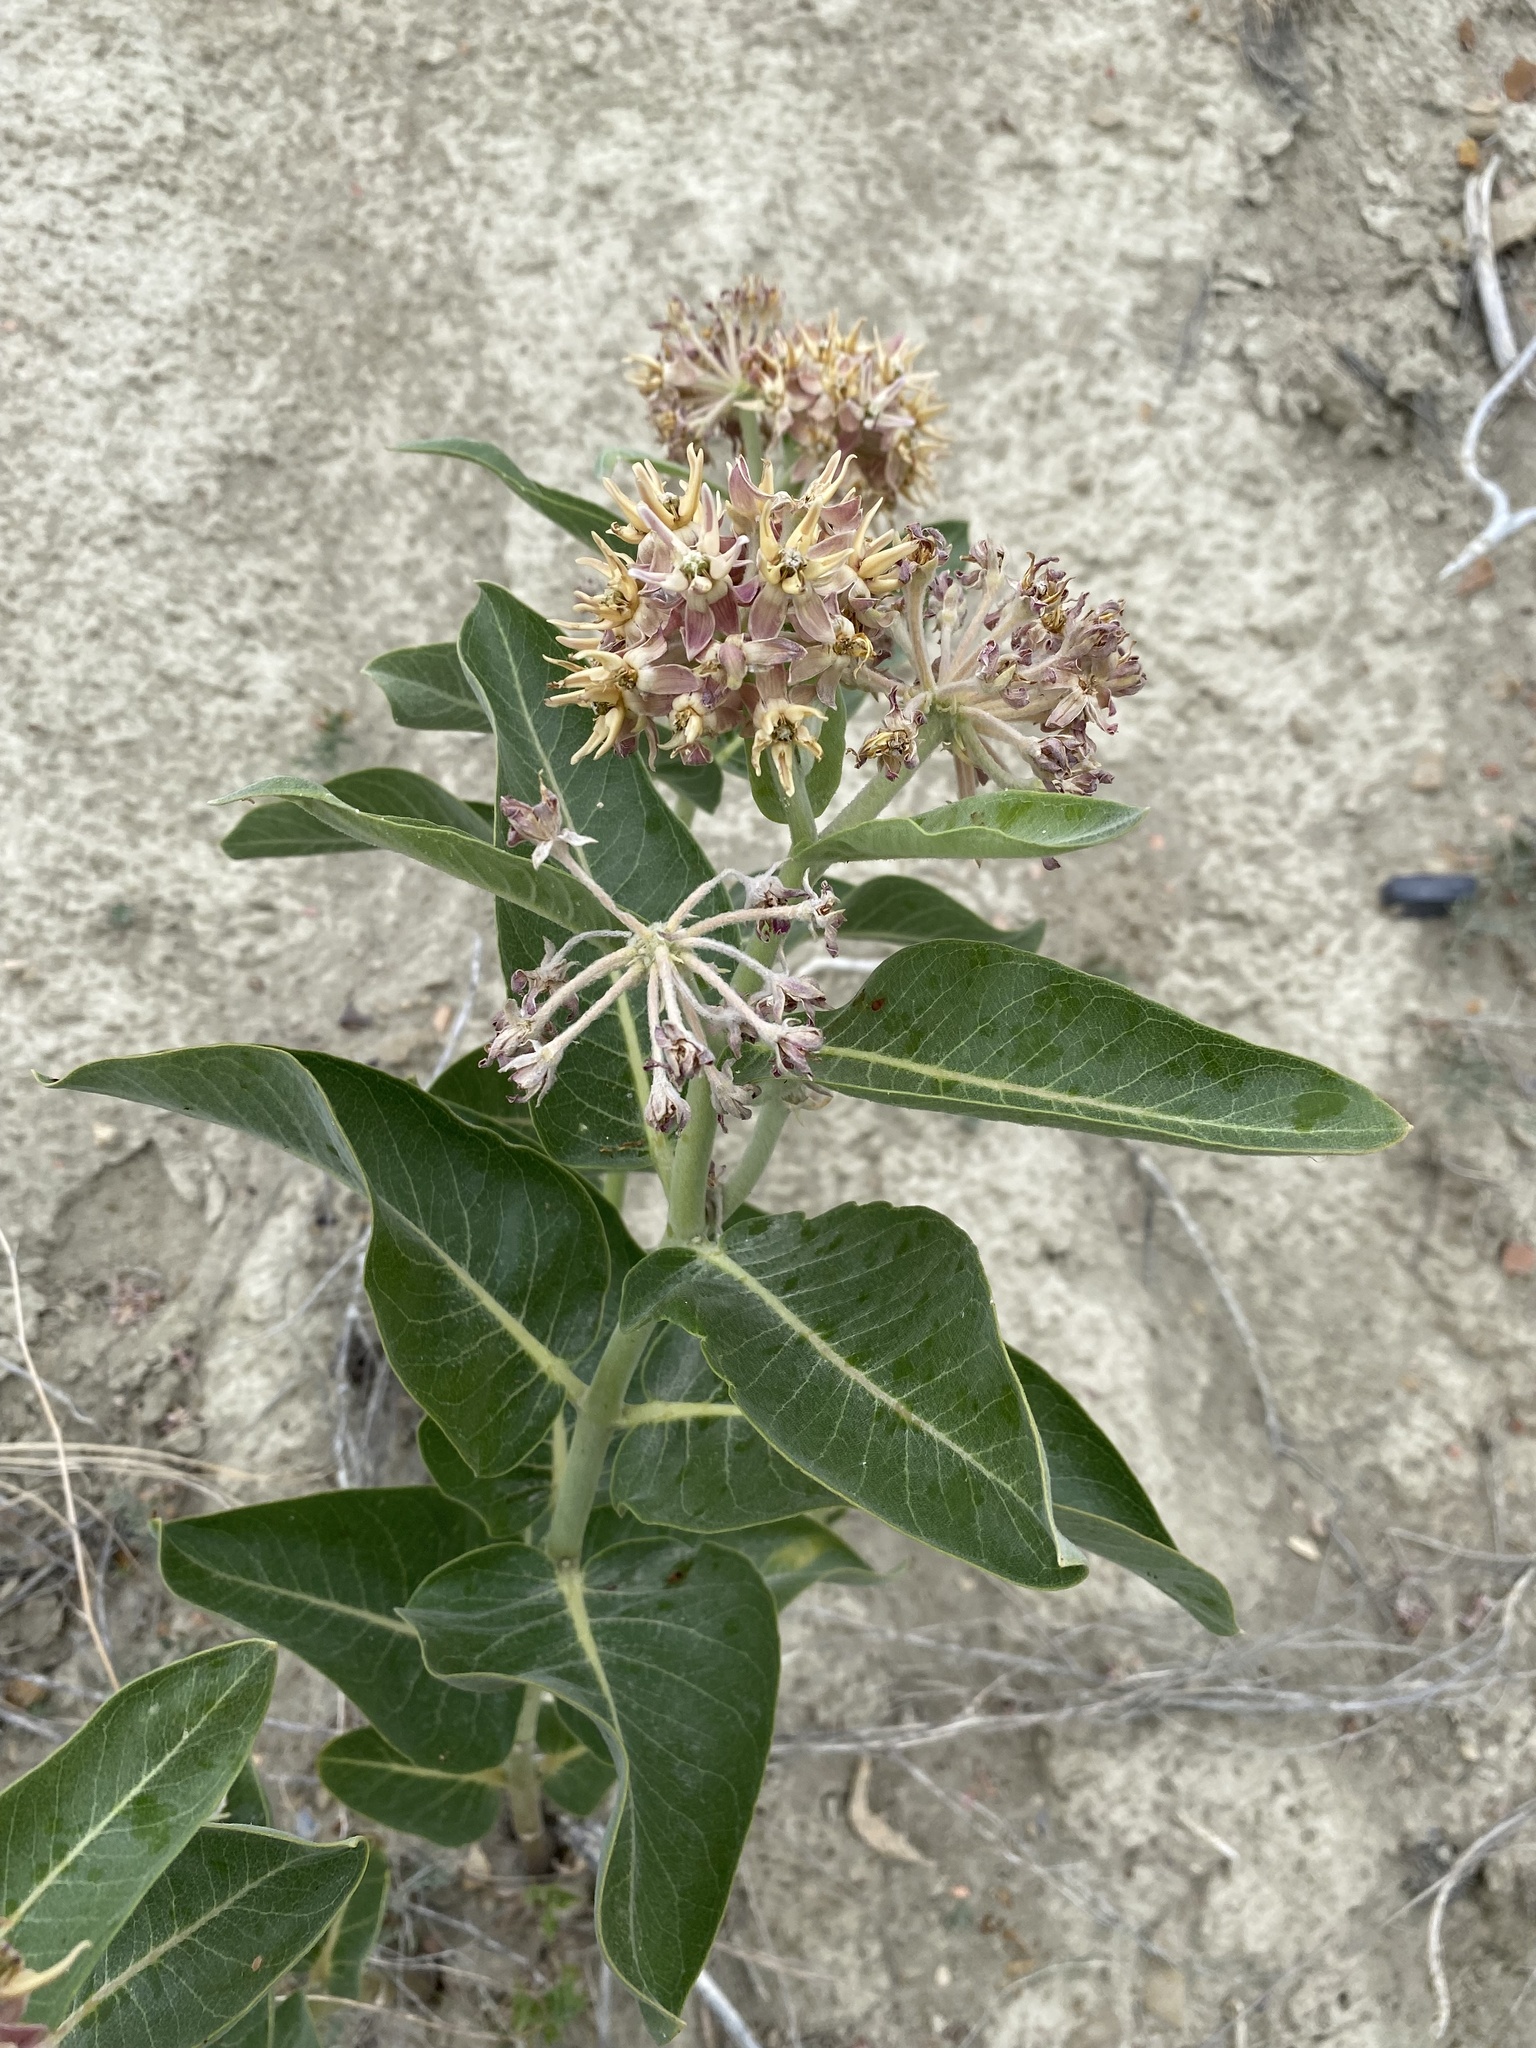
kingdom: Plantae
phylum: Tracheophyta
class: Magnoliopsida
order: Gentianales
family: Apocynaceae
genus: Asclepias
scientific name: Asclepias speciosa
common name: Showy milkweed
